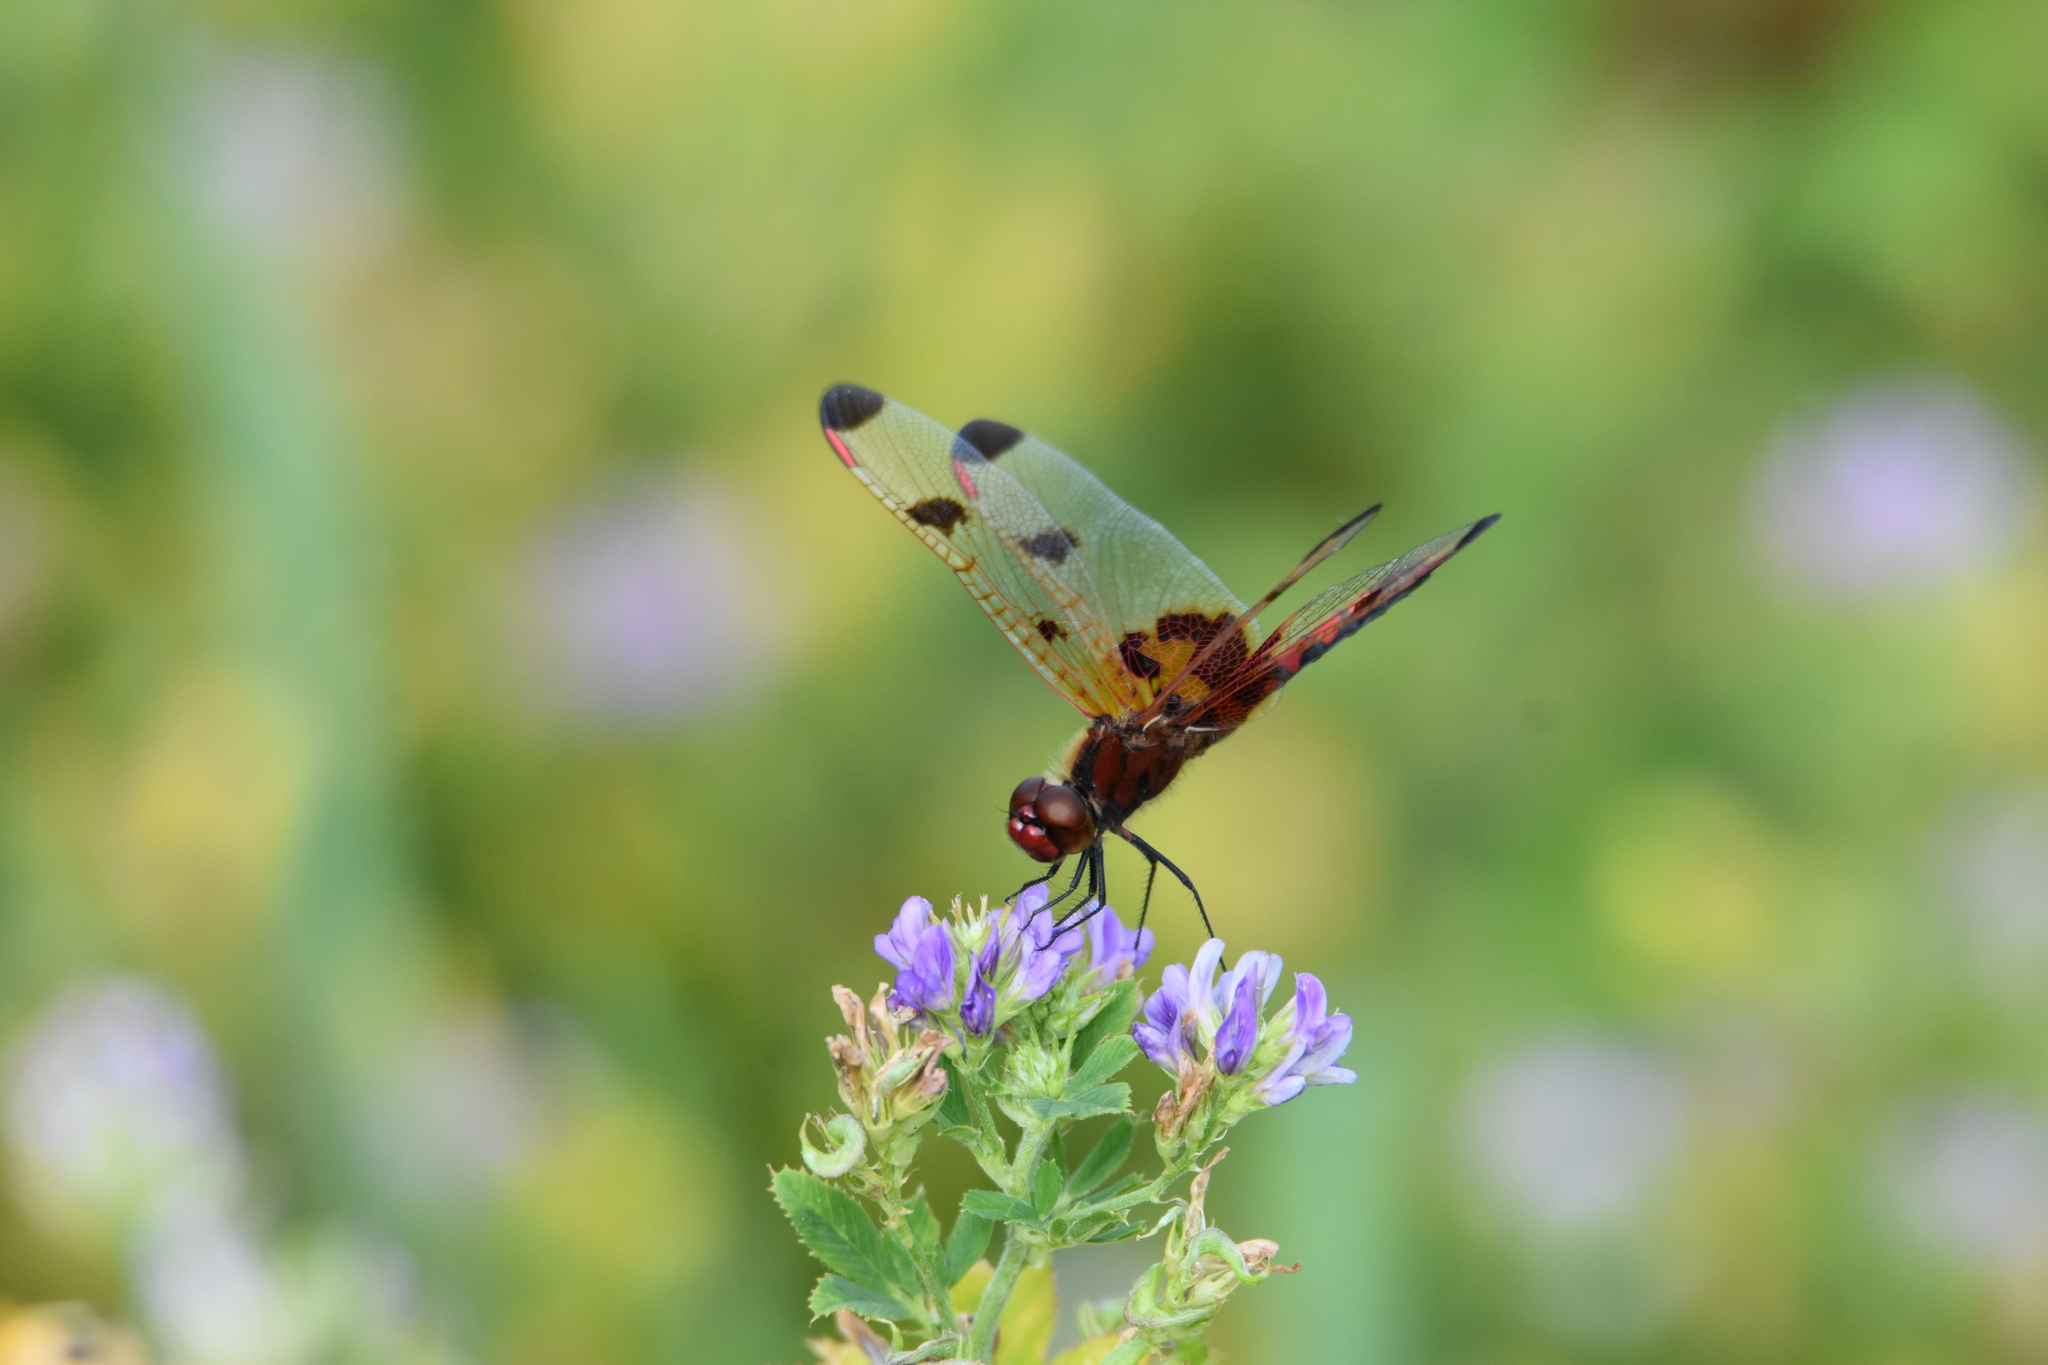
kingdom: Animalia
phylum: Arthropoda
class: Insecta
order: Odonata
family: Libellulidae
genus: Celithemis
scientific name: Celithemis elisa
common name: Calico pennant
